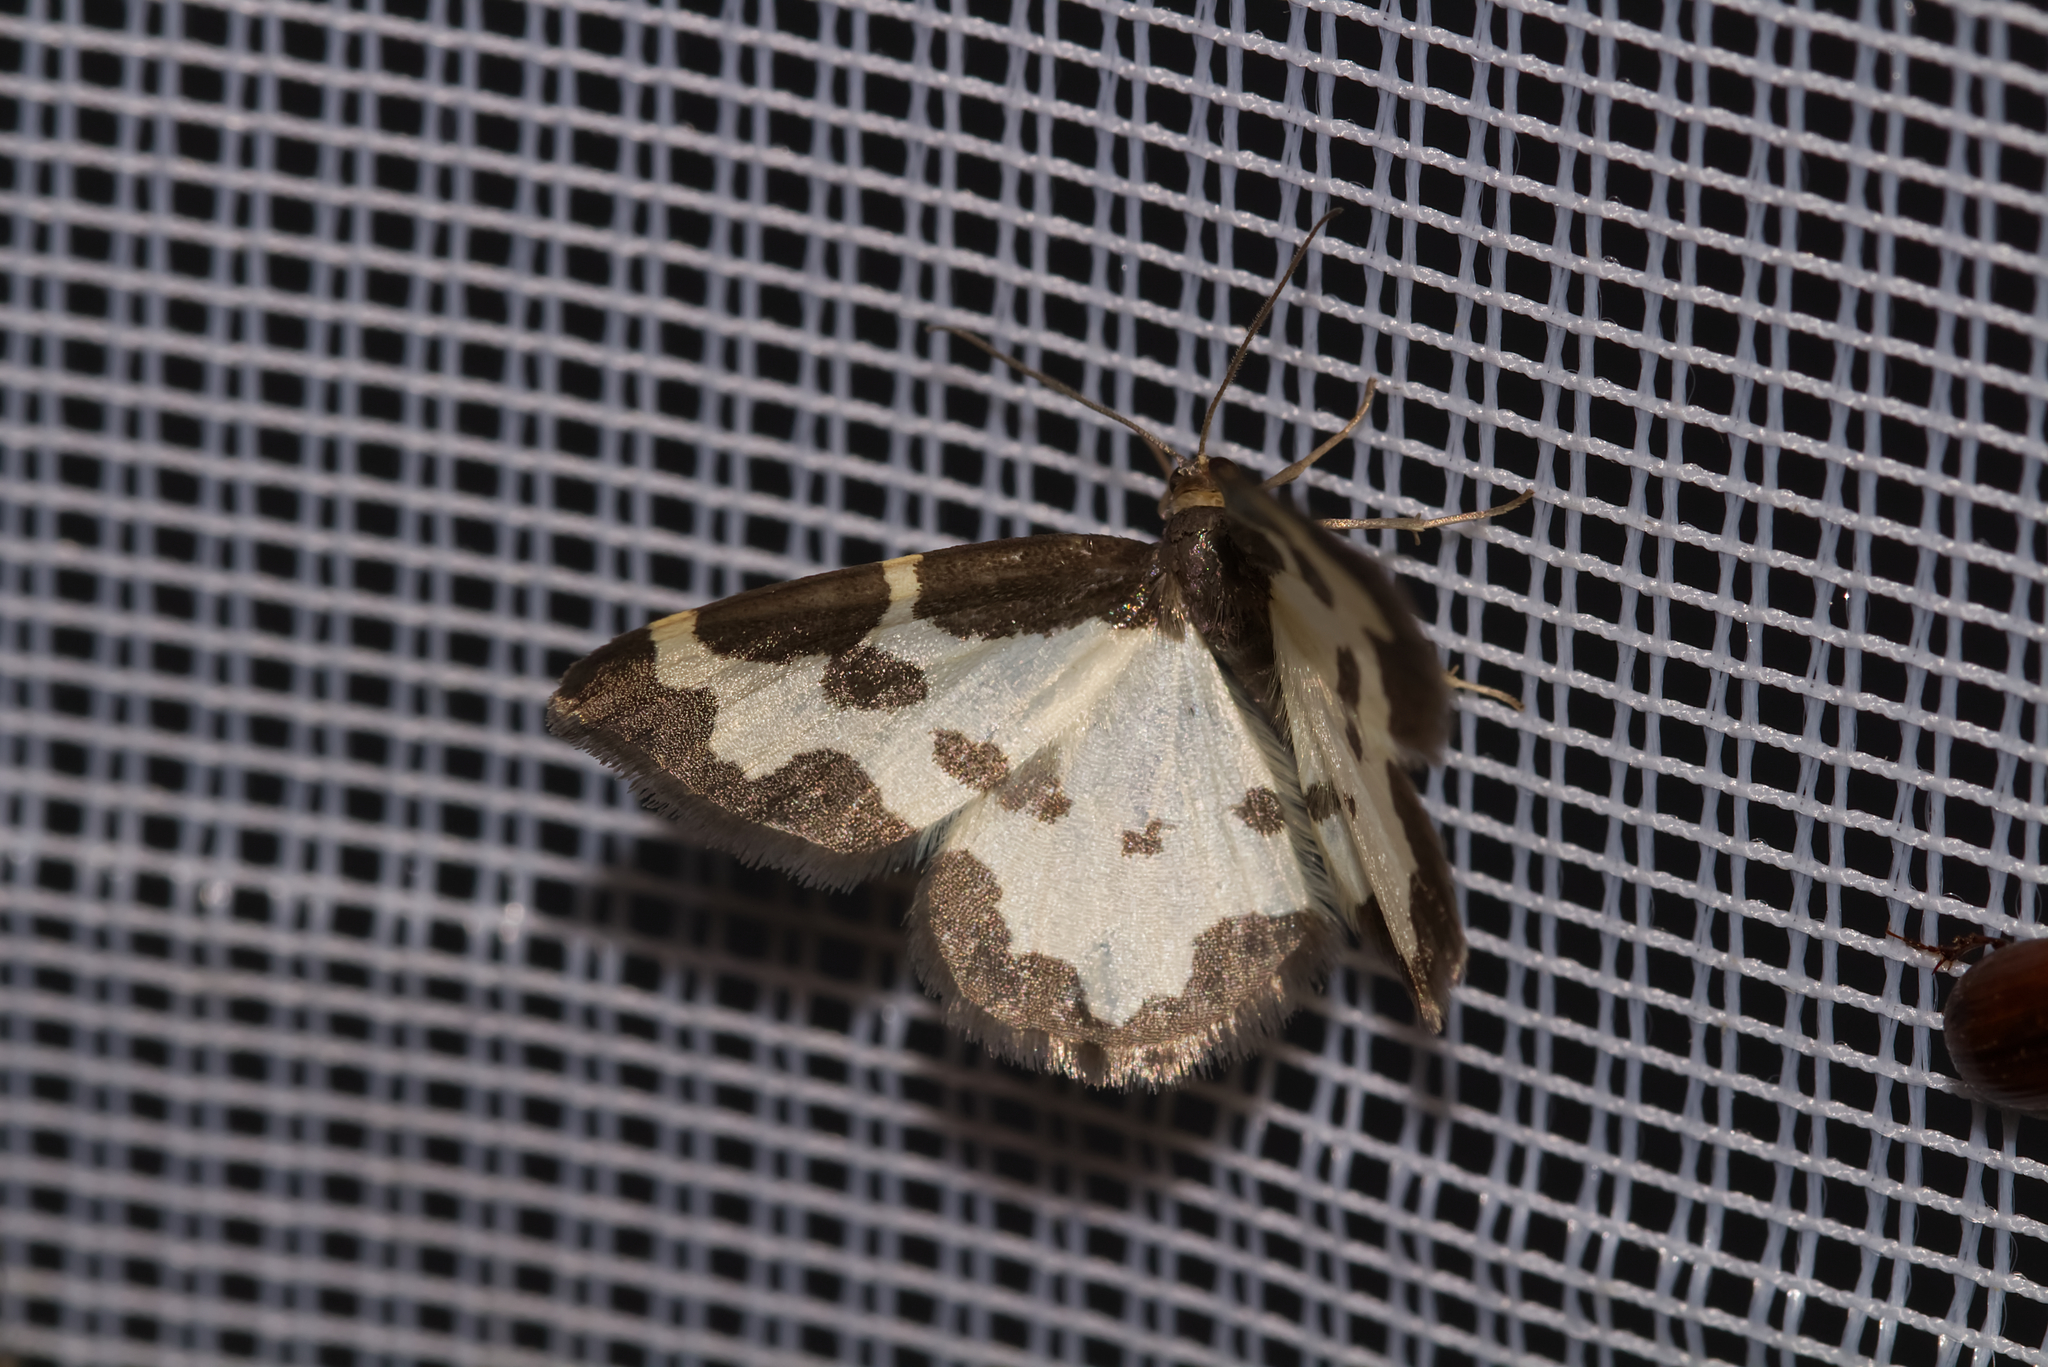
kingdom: Animalia
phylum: Arthropoda
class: Insecta
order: Lepidoptera
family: Geometridae
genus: Lomaspilis
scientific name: Lomaspilis marginata
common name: Clouded border
